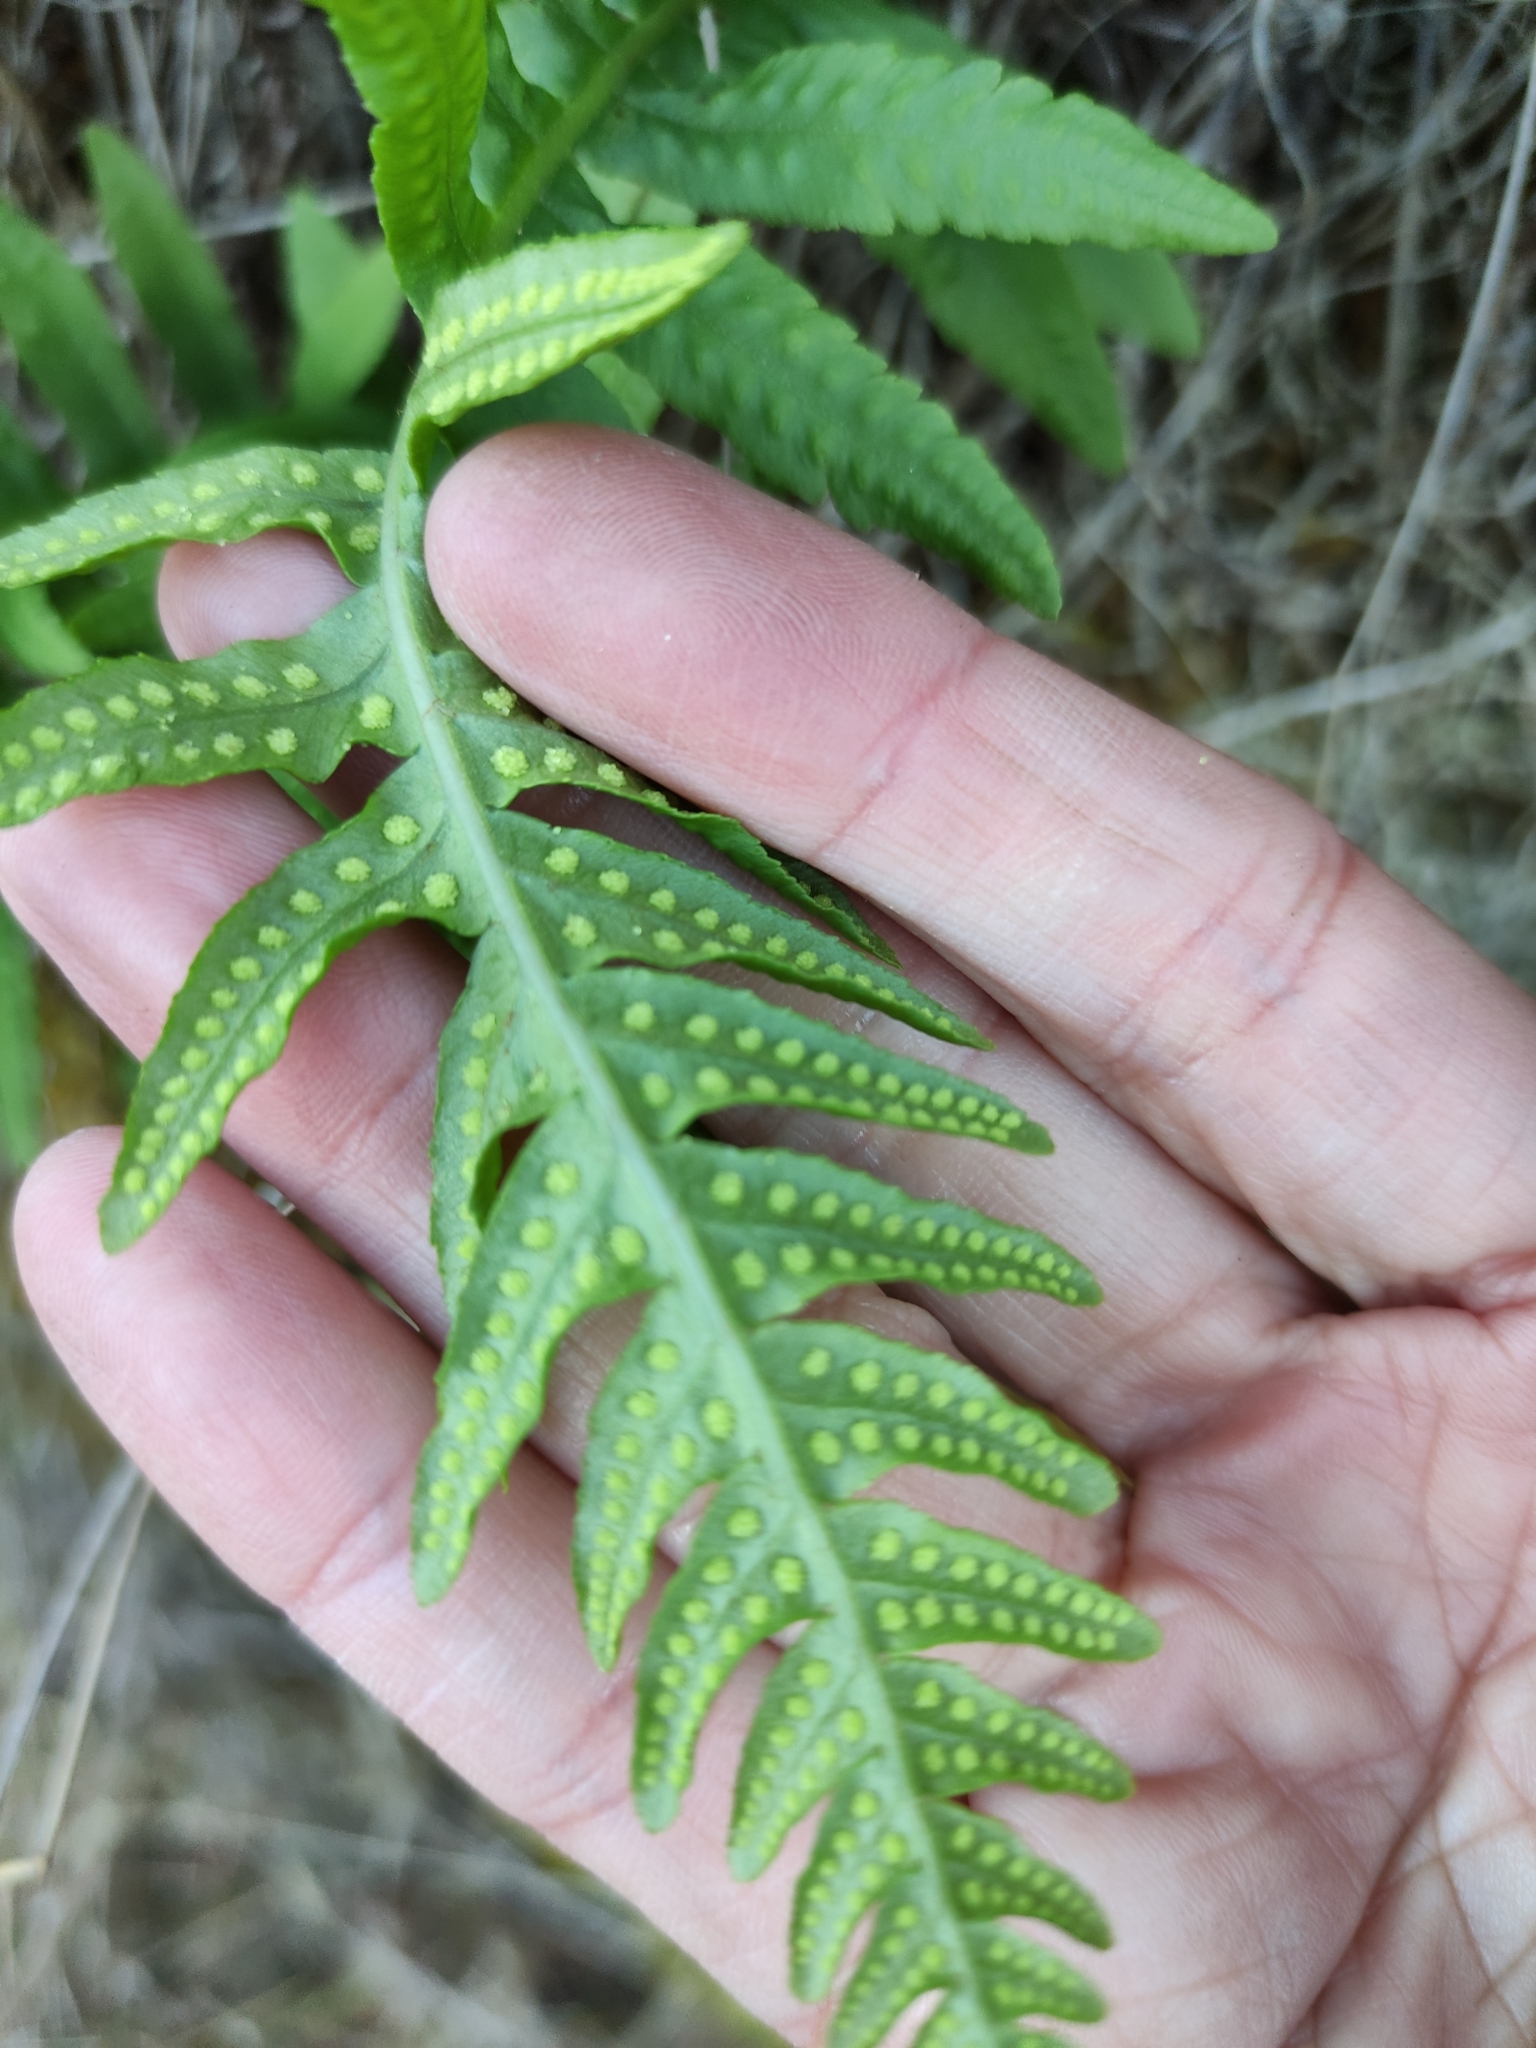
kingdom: Plantae
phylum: Tracheophyta
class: Polypodiopsida
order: Polypodiales
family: Polypodiaceae
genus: Polypodium
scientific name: Polypodium vulgare
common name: Common polypody
